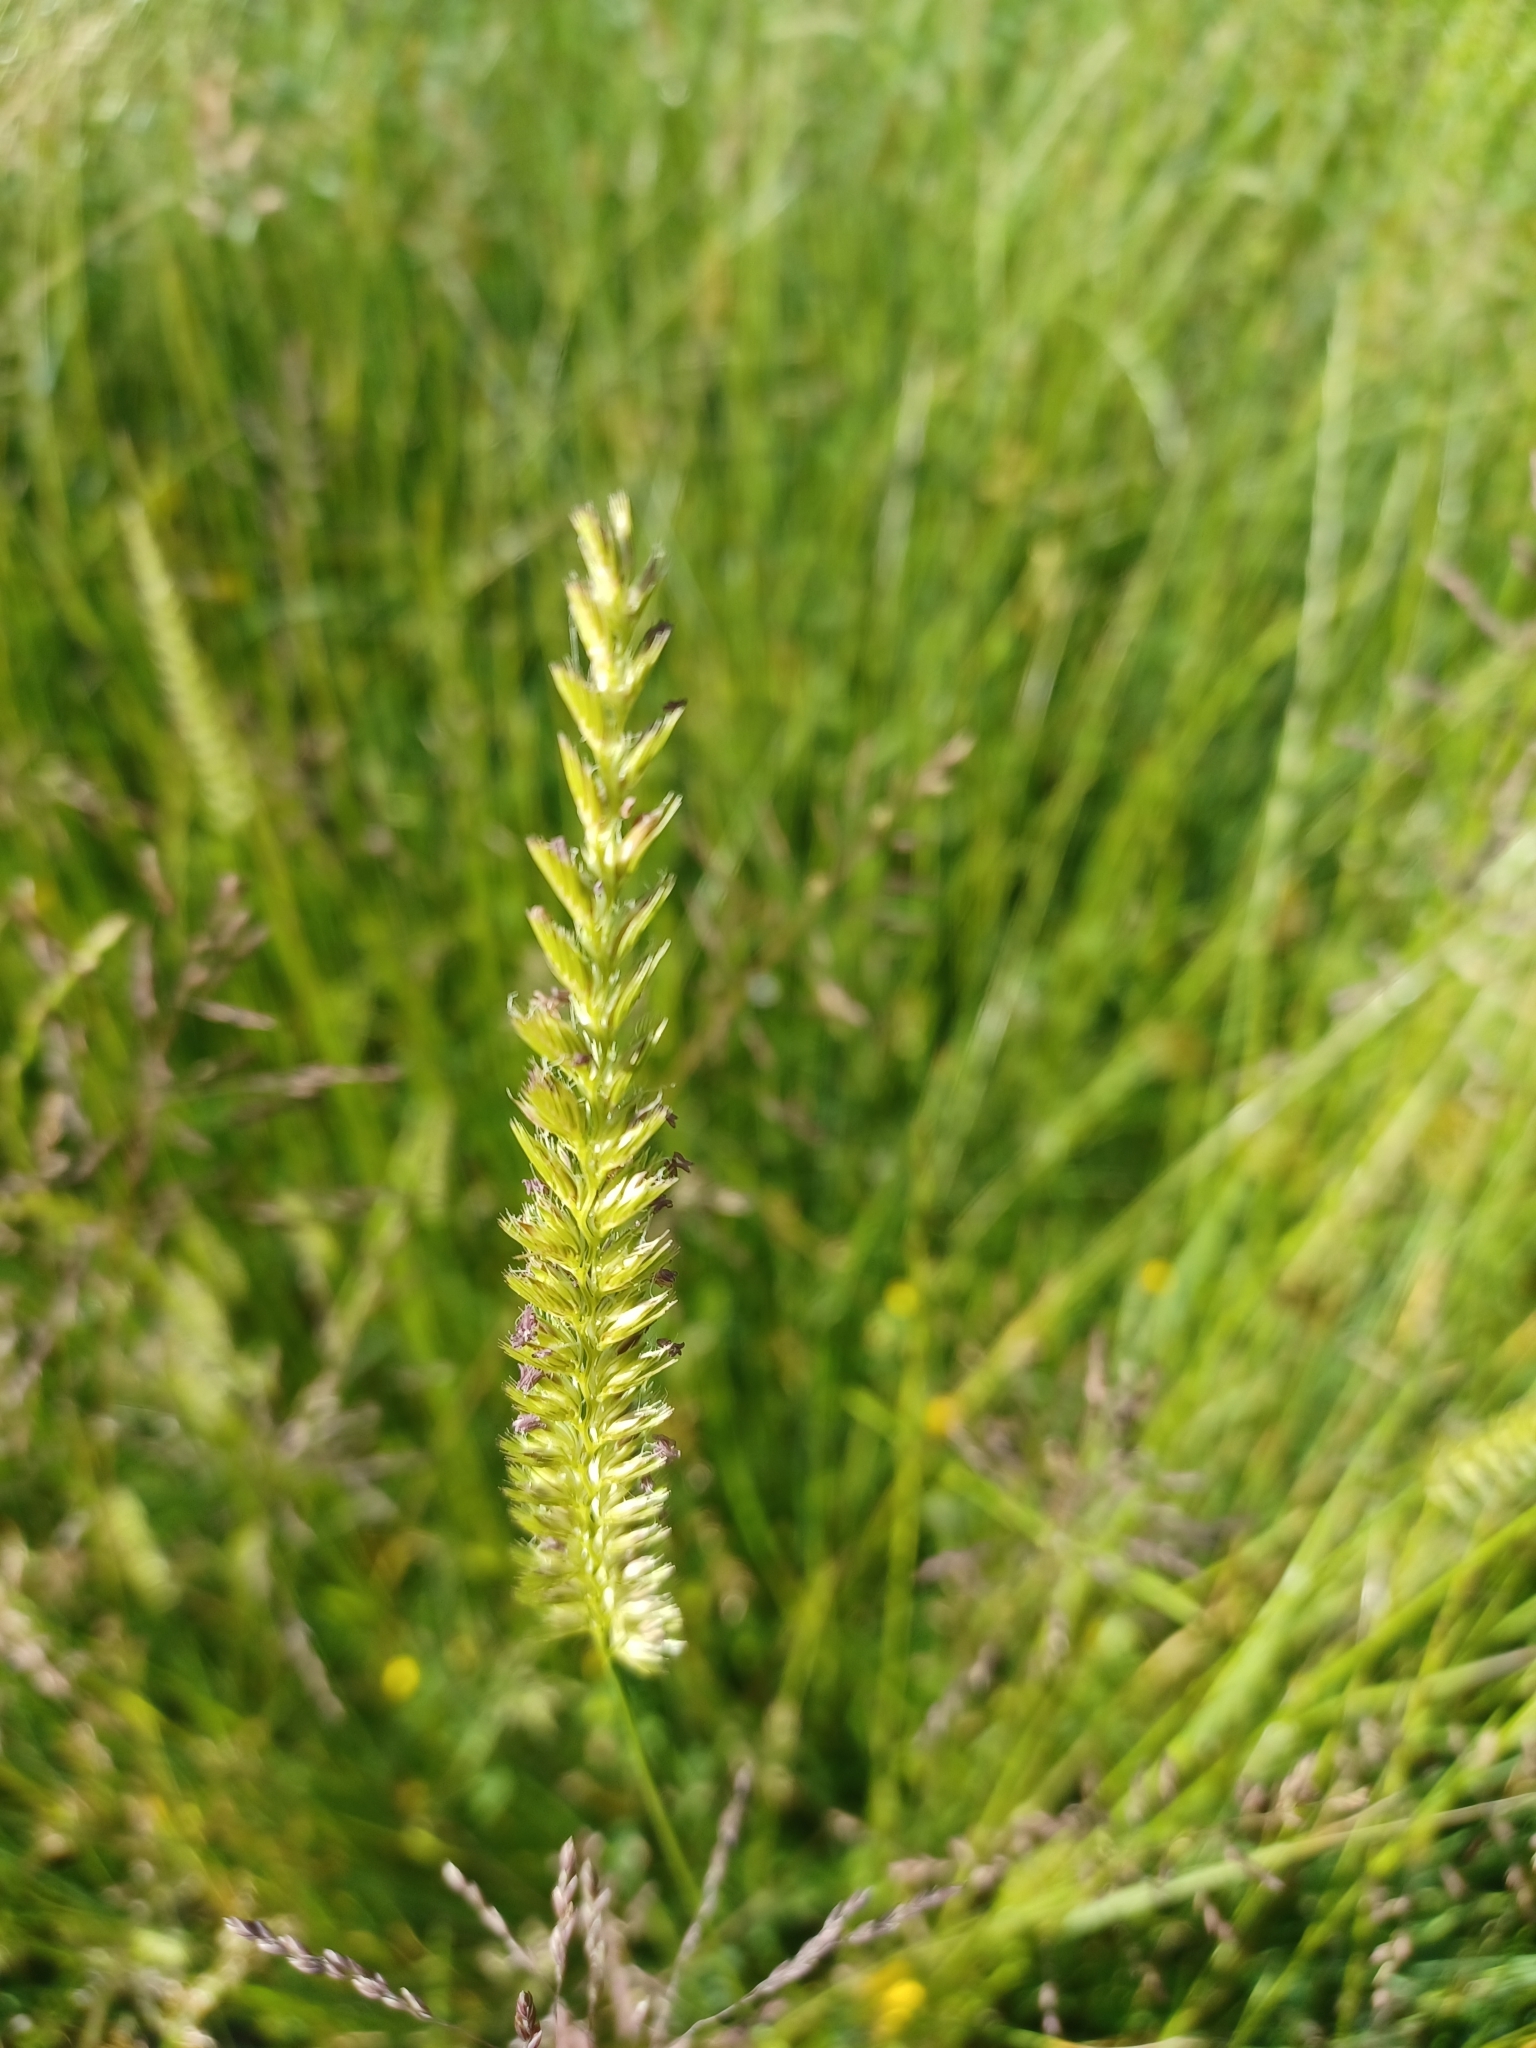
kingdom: Plantae
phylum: Tracheophyta
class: Liliopsida
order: Poales
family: Poaceae
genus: Cynosurus
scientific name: Cynosurus cristatus
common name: Crested dog's-tail
